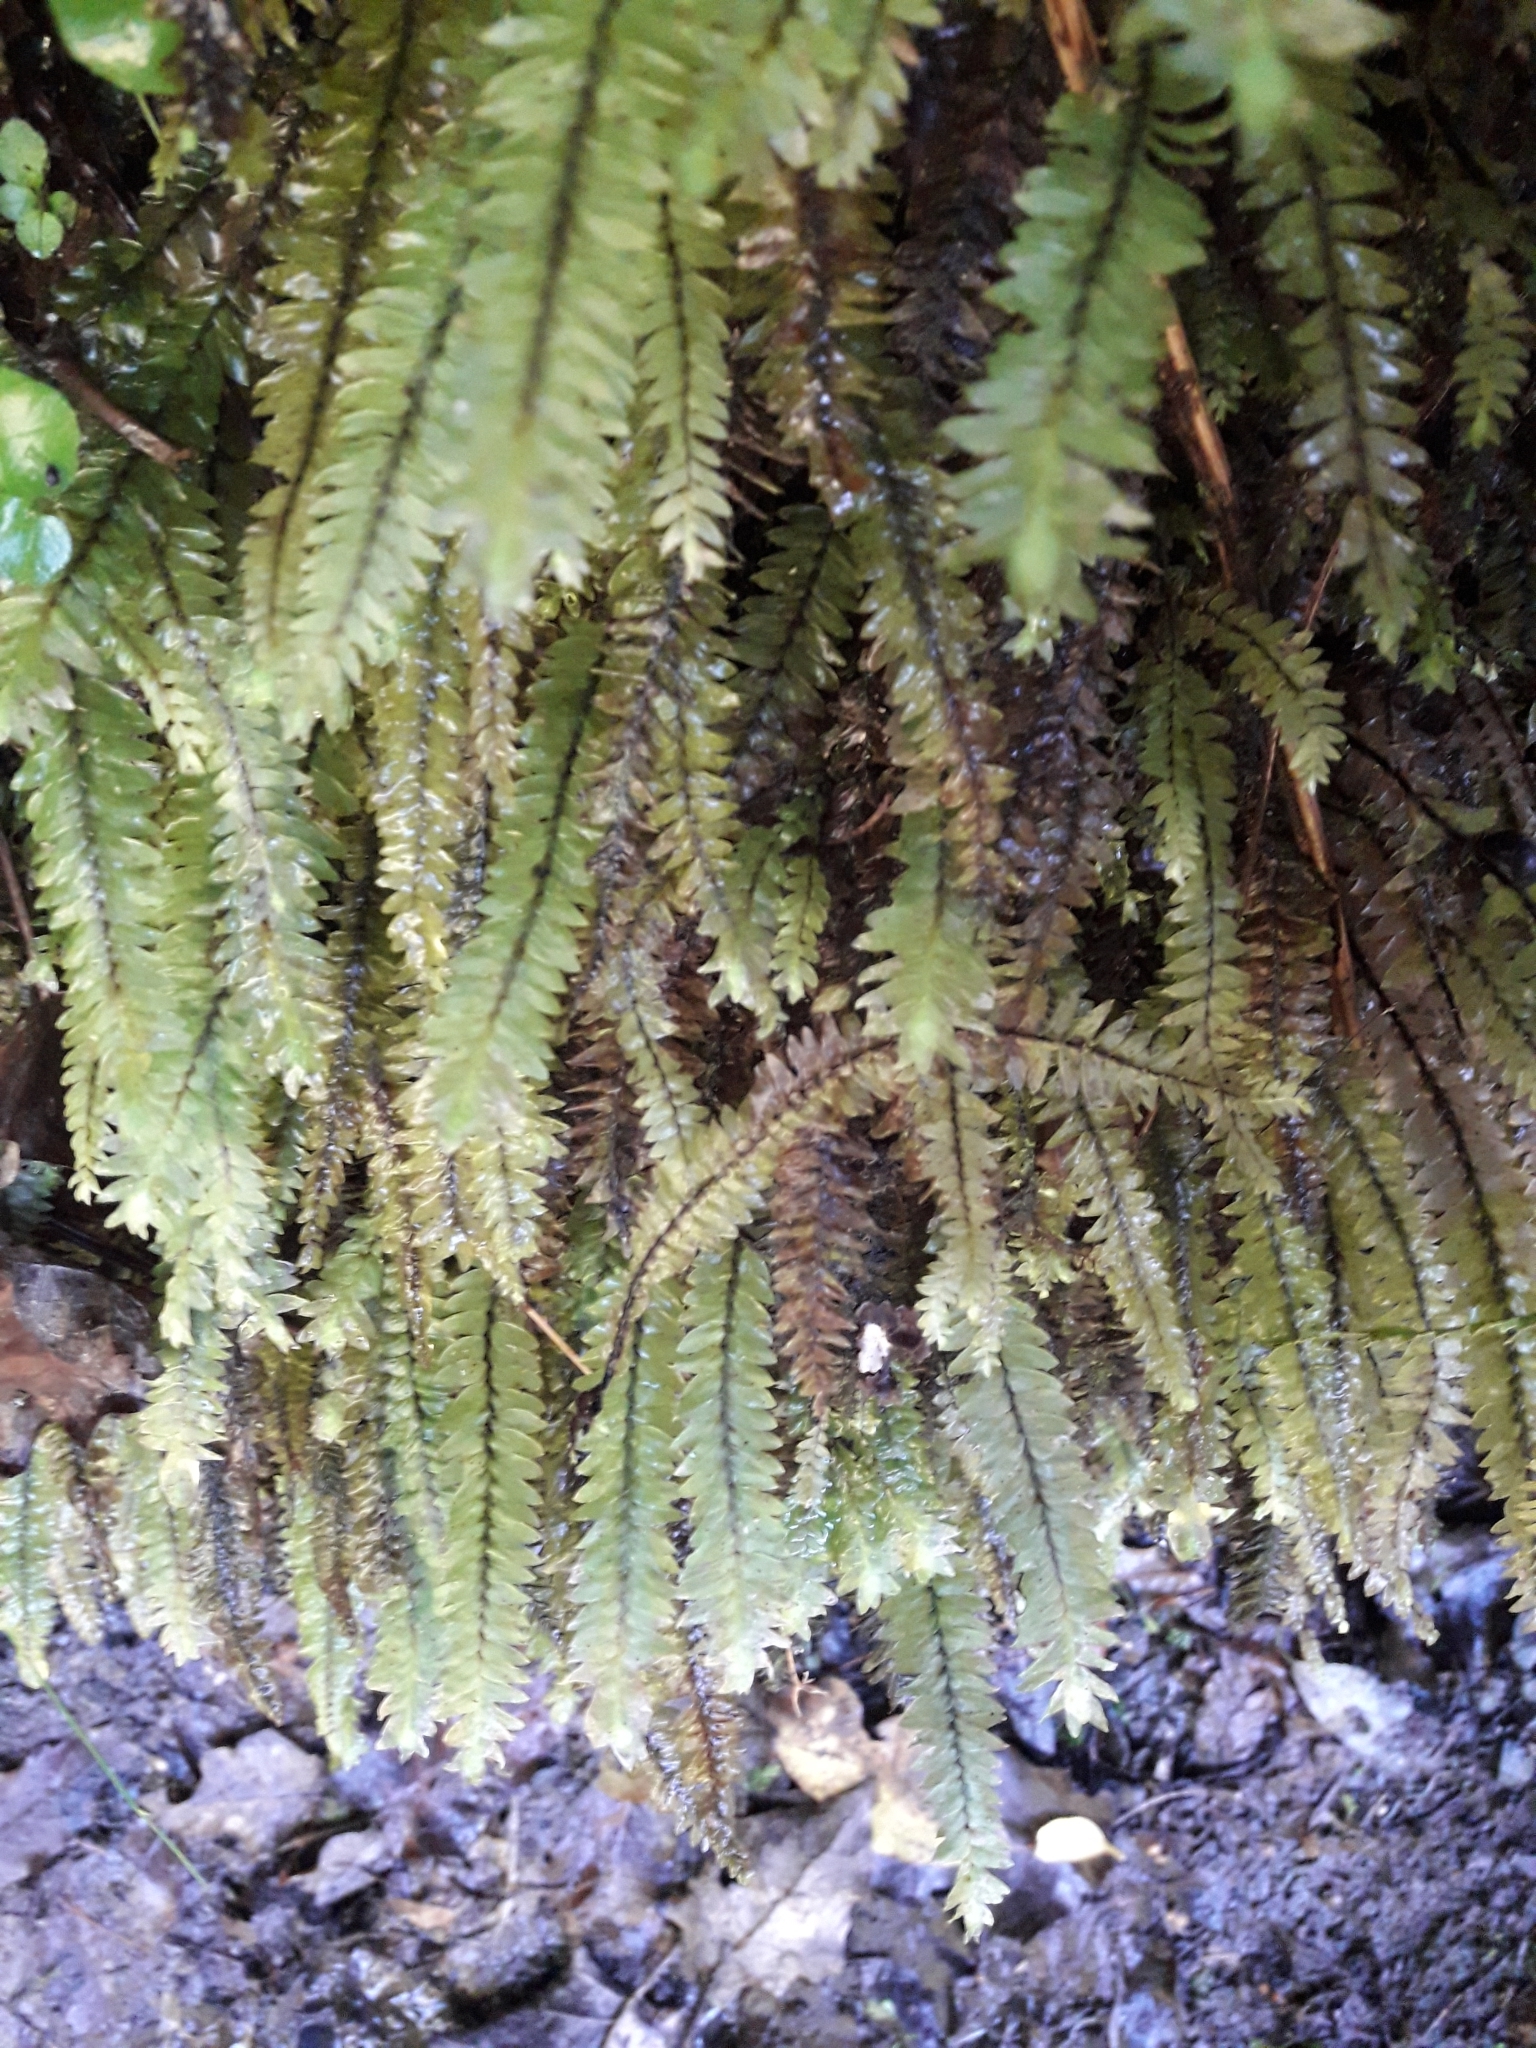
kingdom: Plantae
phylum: Bryophyta
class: Bryopsida
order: Hypopterygiales
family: Hypopterygiaceae
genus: Cyathophorum
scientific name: Cyathophorum bulbosum
